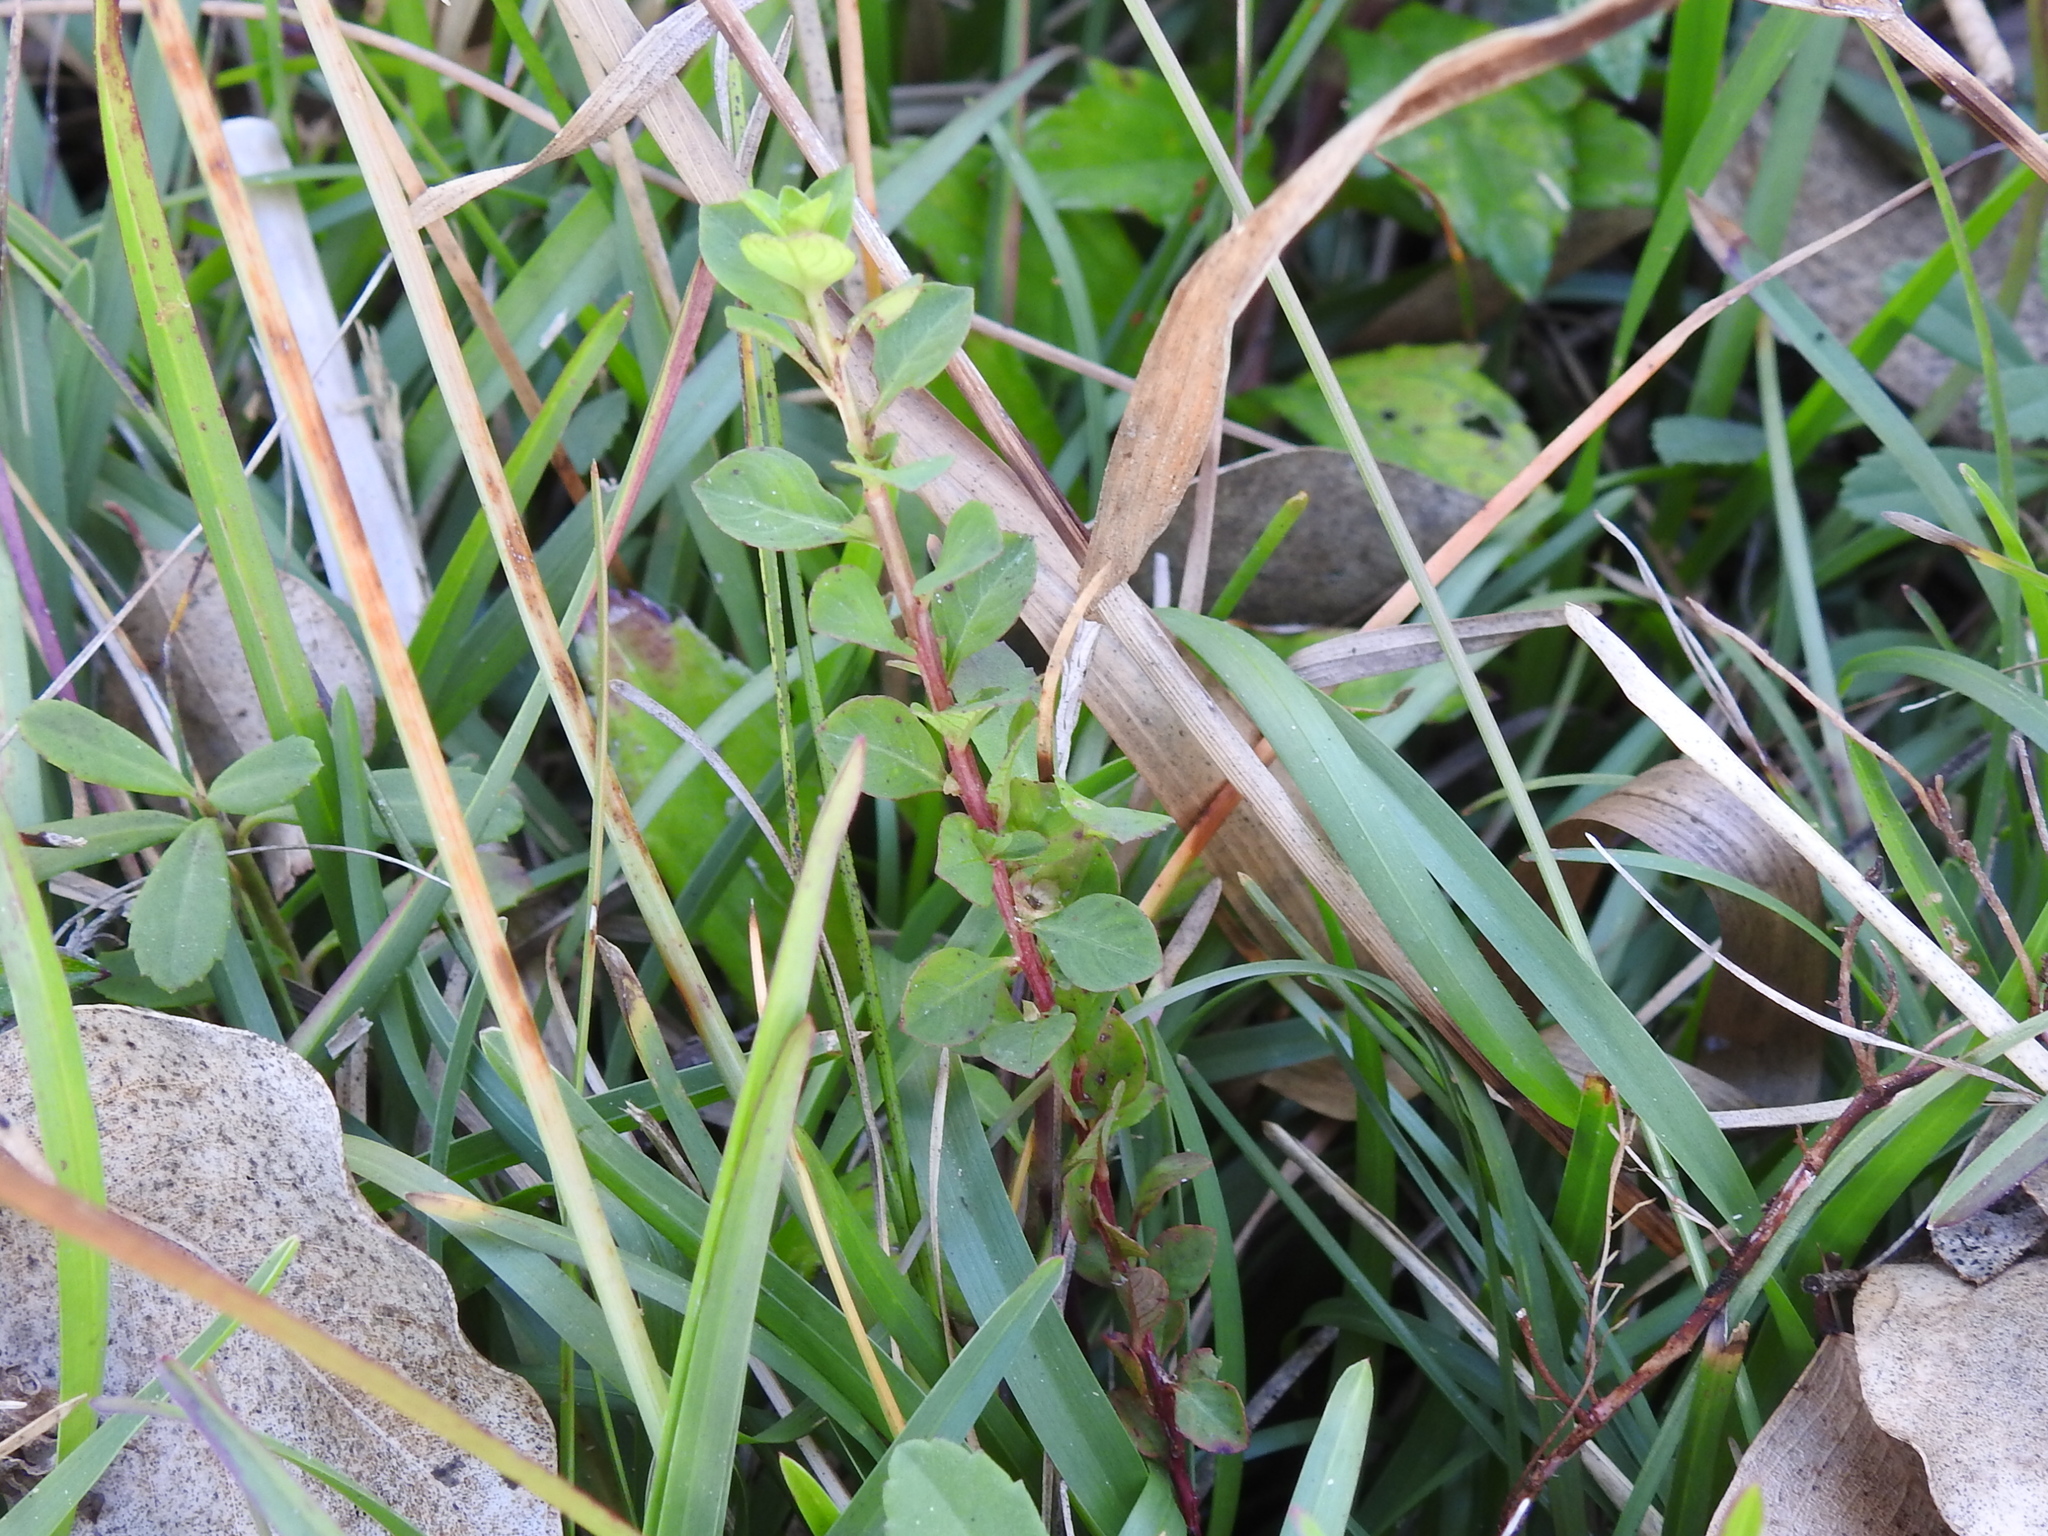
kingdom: Plantae
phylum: Tracheophyta
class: Magnoliopsida
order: Myrtales
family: Onagraceae
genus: Ludwigia
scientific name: Ludwigia repens
